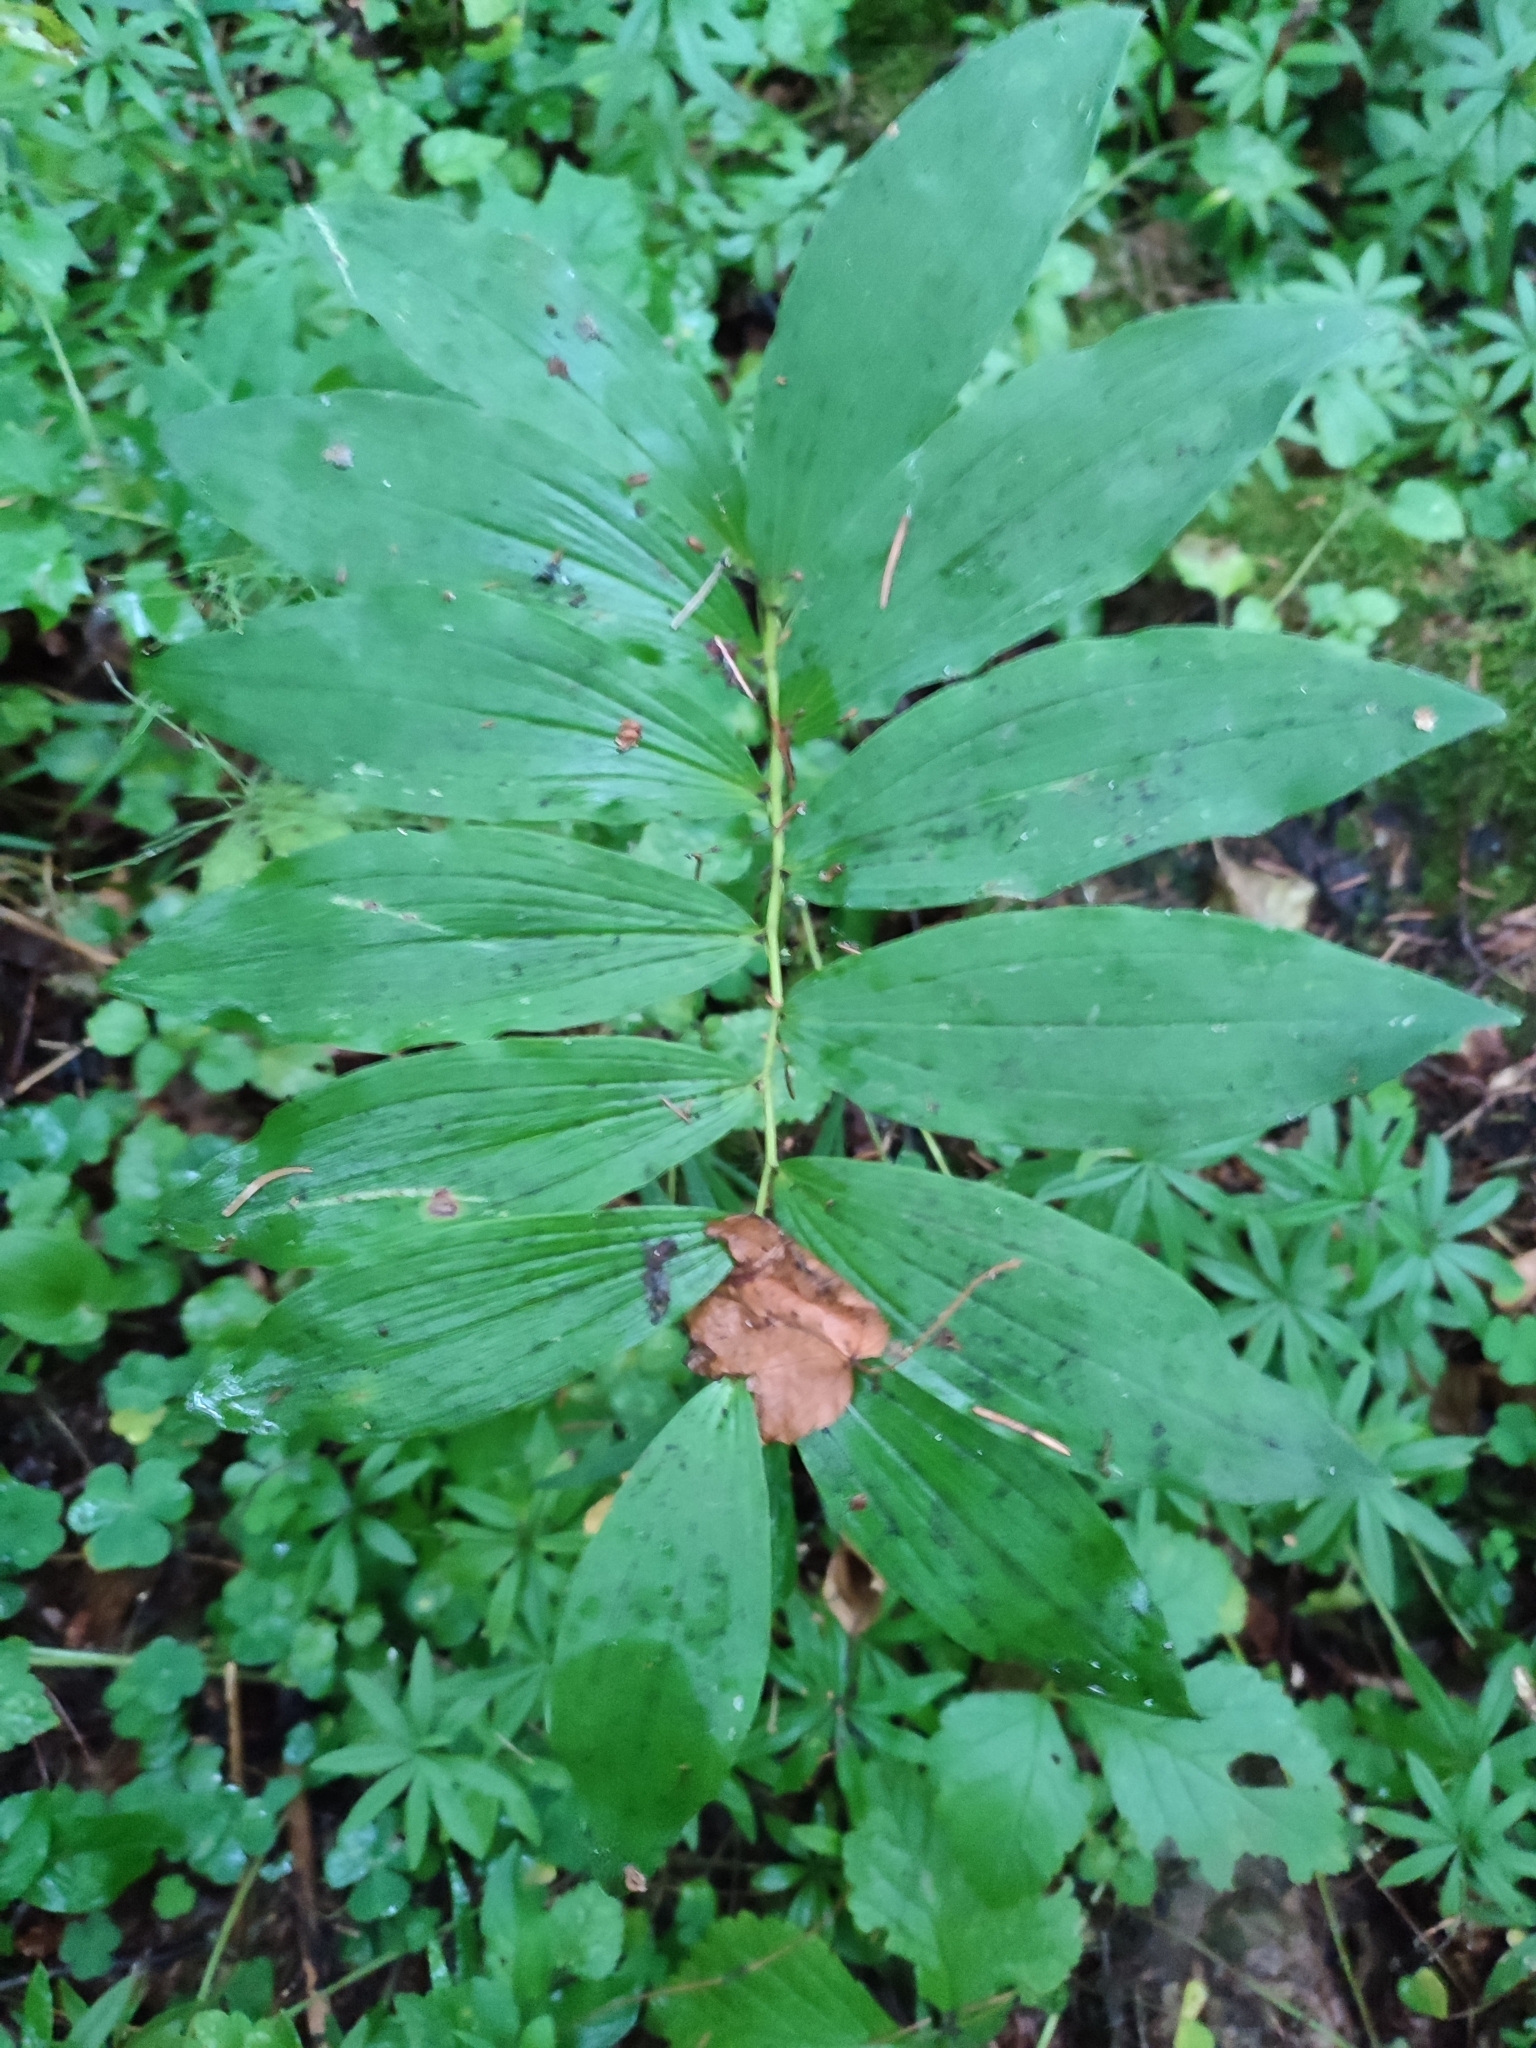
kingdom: Plantae
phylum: Tracheophyta
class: Liliopsida
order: Asparagales
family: Asparagaceae
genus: Polygonatum
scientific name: Polygonatum multiflorum
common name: Solomon's-seal
